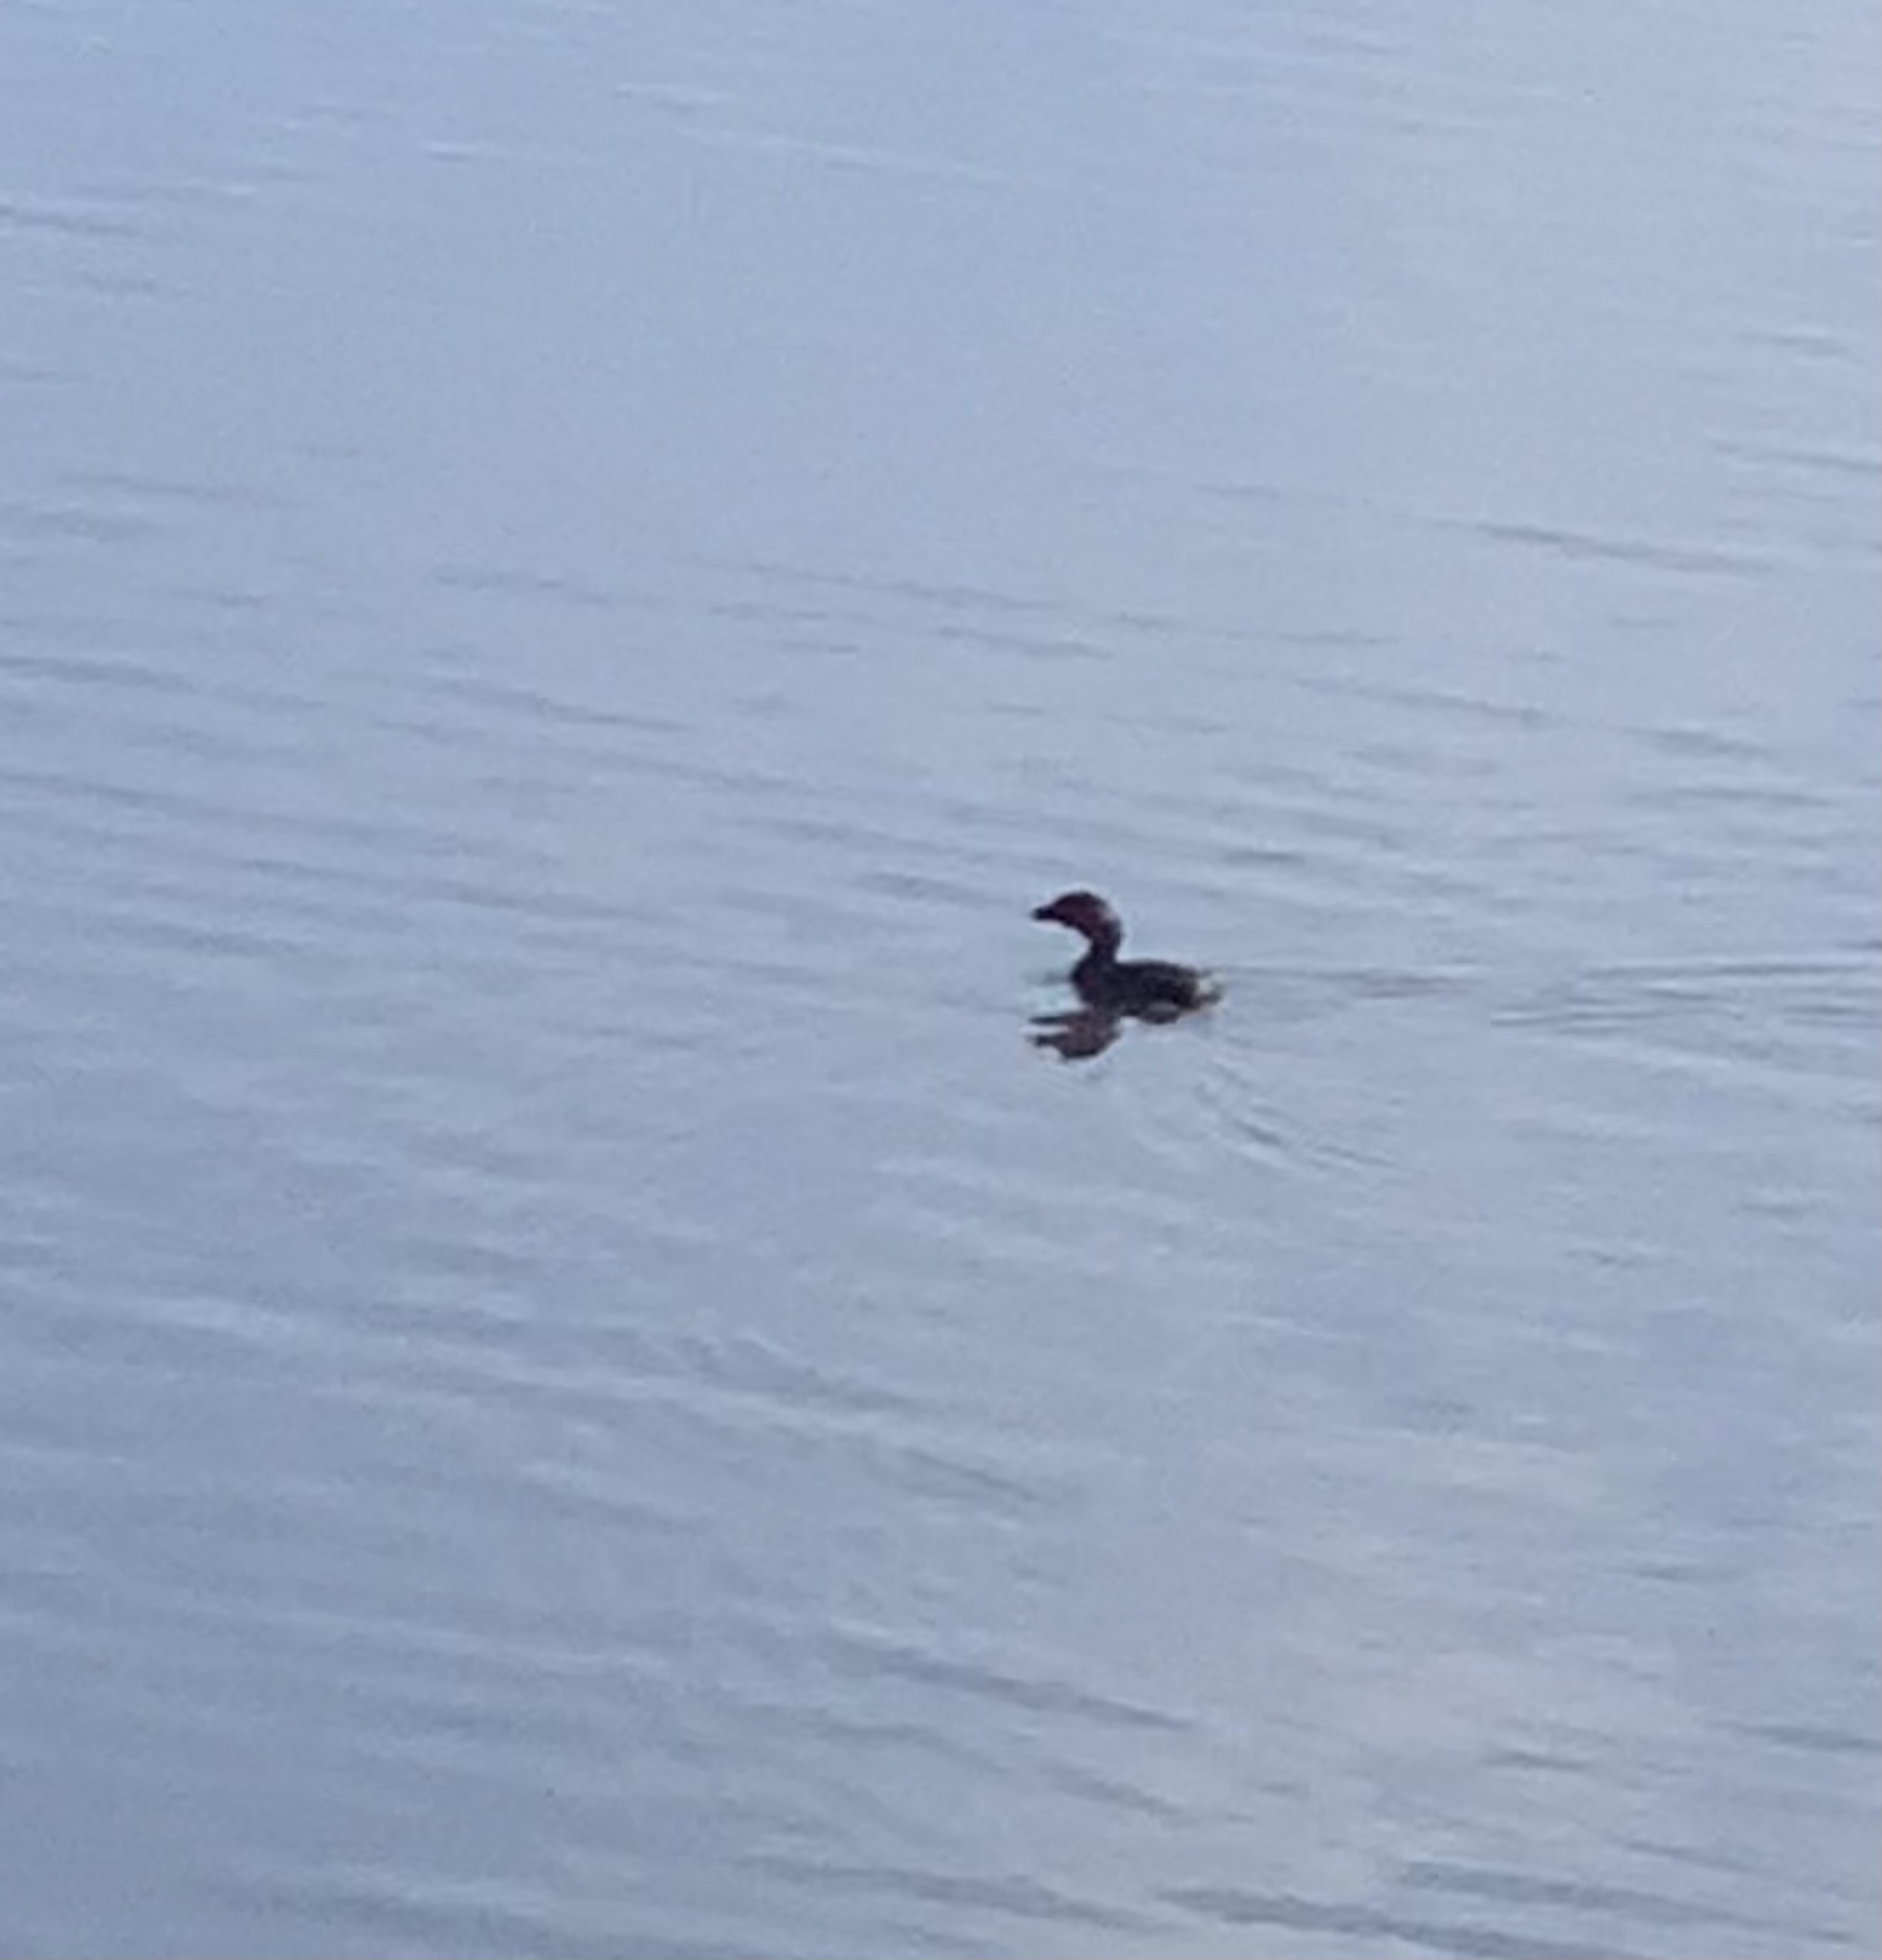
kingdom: Animalia
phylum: Chordata
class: Aves
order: Podicipediformes
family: Podicipedidae
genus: Podilymbus
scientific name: Podilymbus podiceps
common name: Pied-billed grebe
